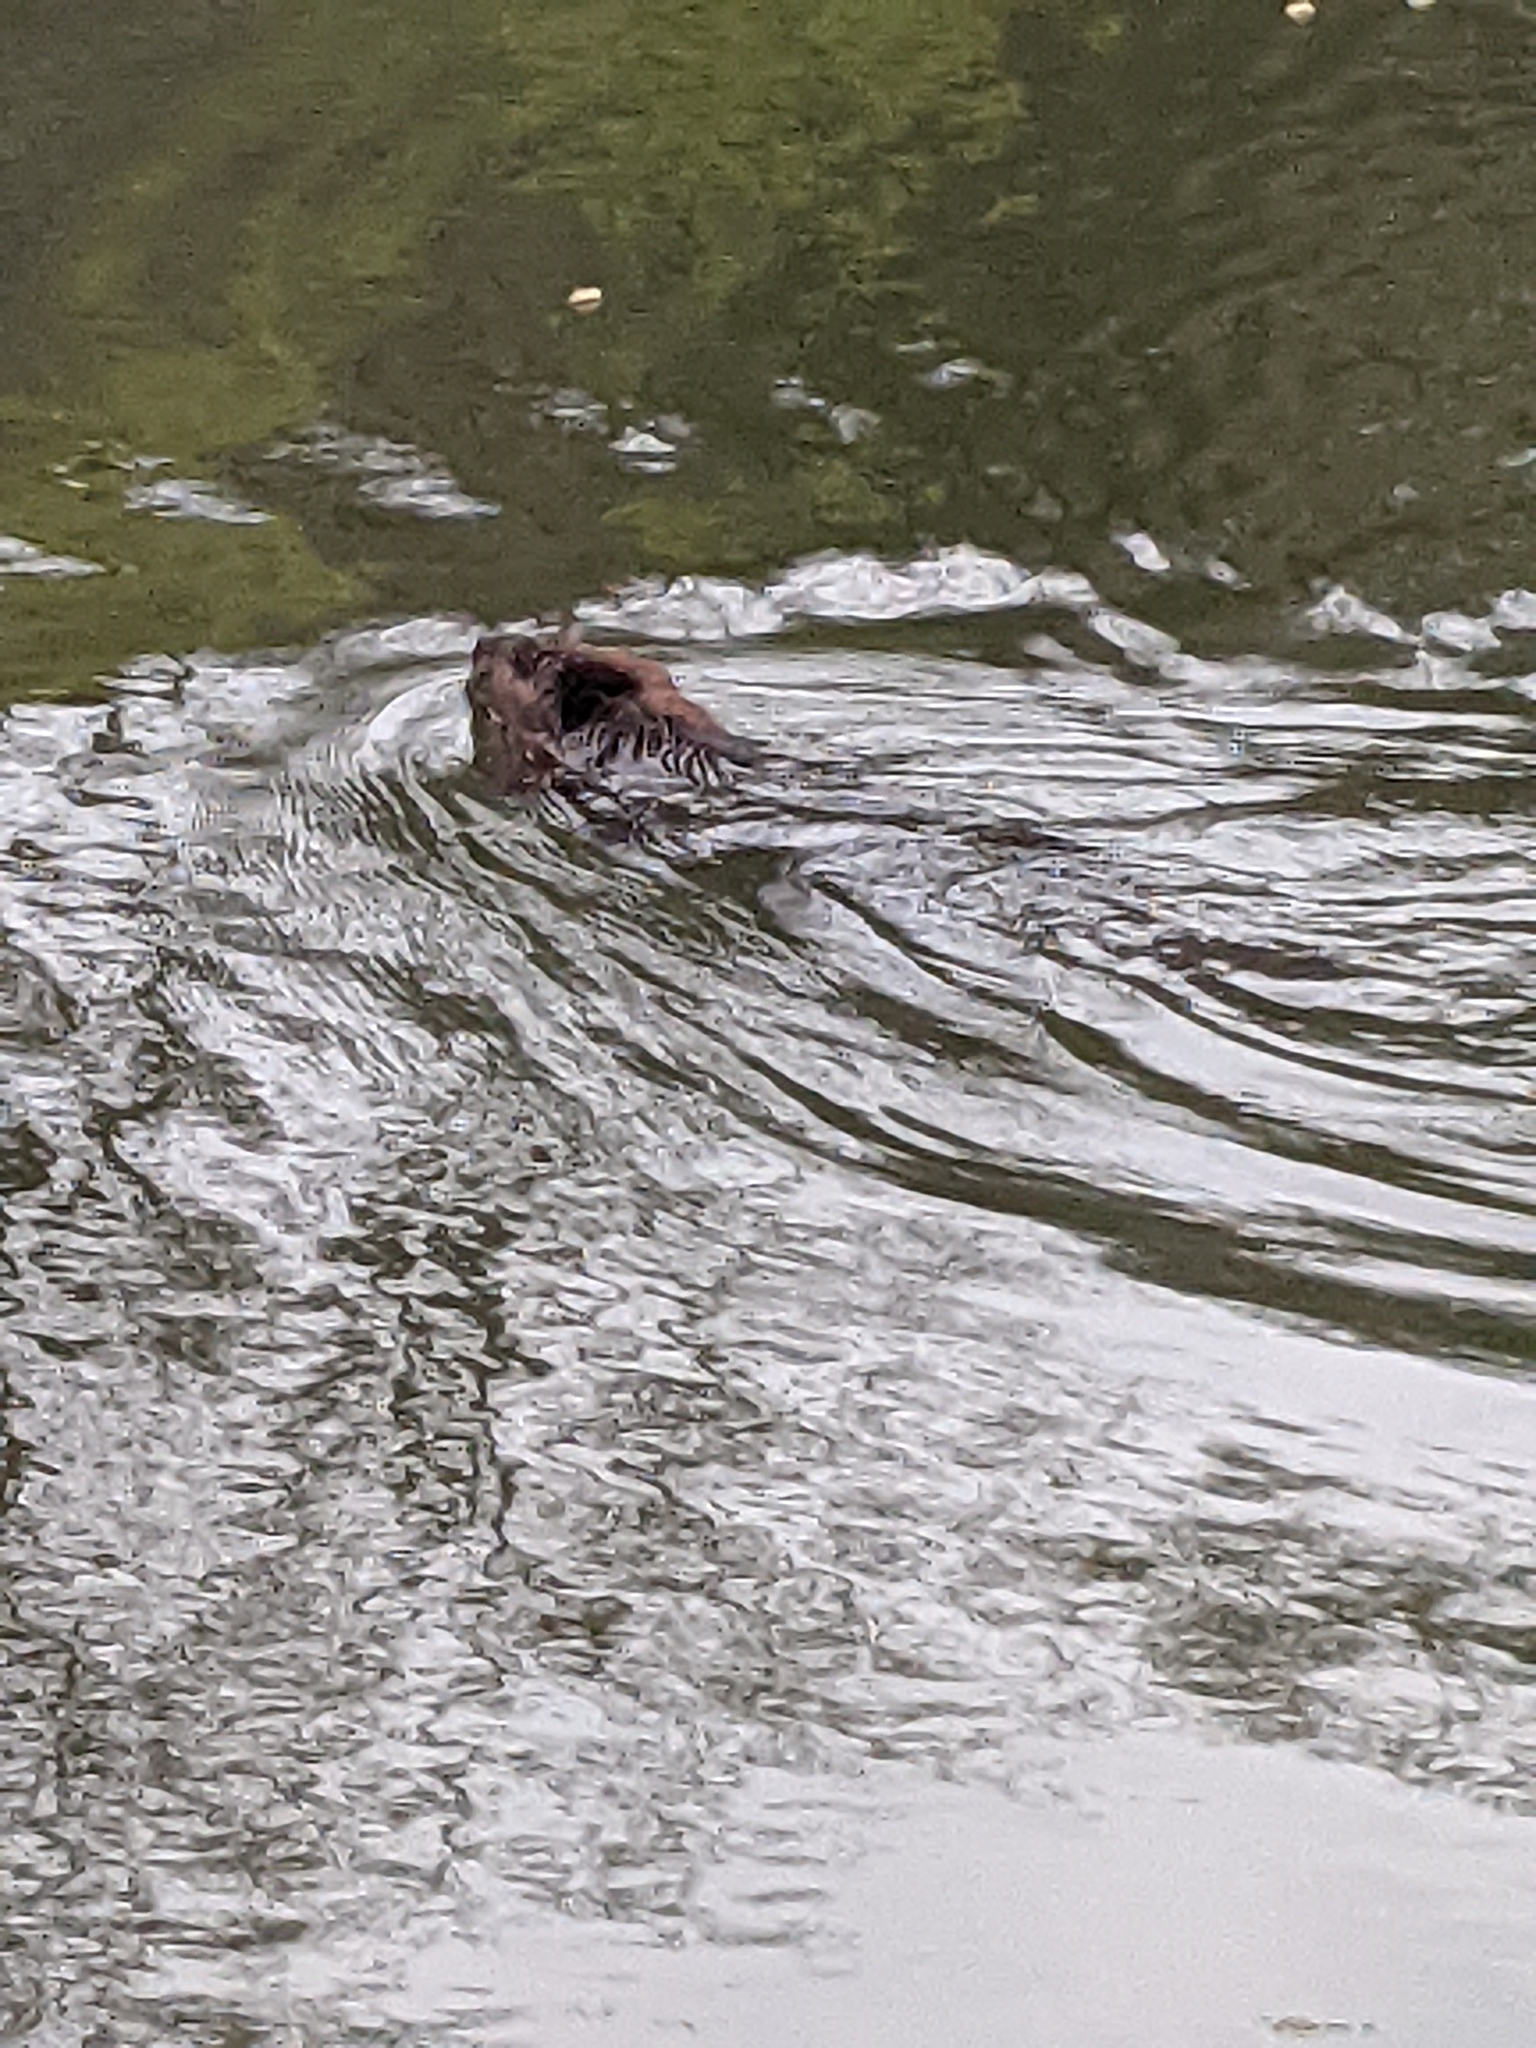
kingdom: Animalia
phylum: Chordata
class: Mammalia
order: Rodentia
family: Castoridae
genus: Castor
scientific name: Castor canadensis
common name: American beaver
